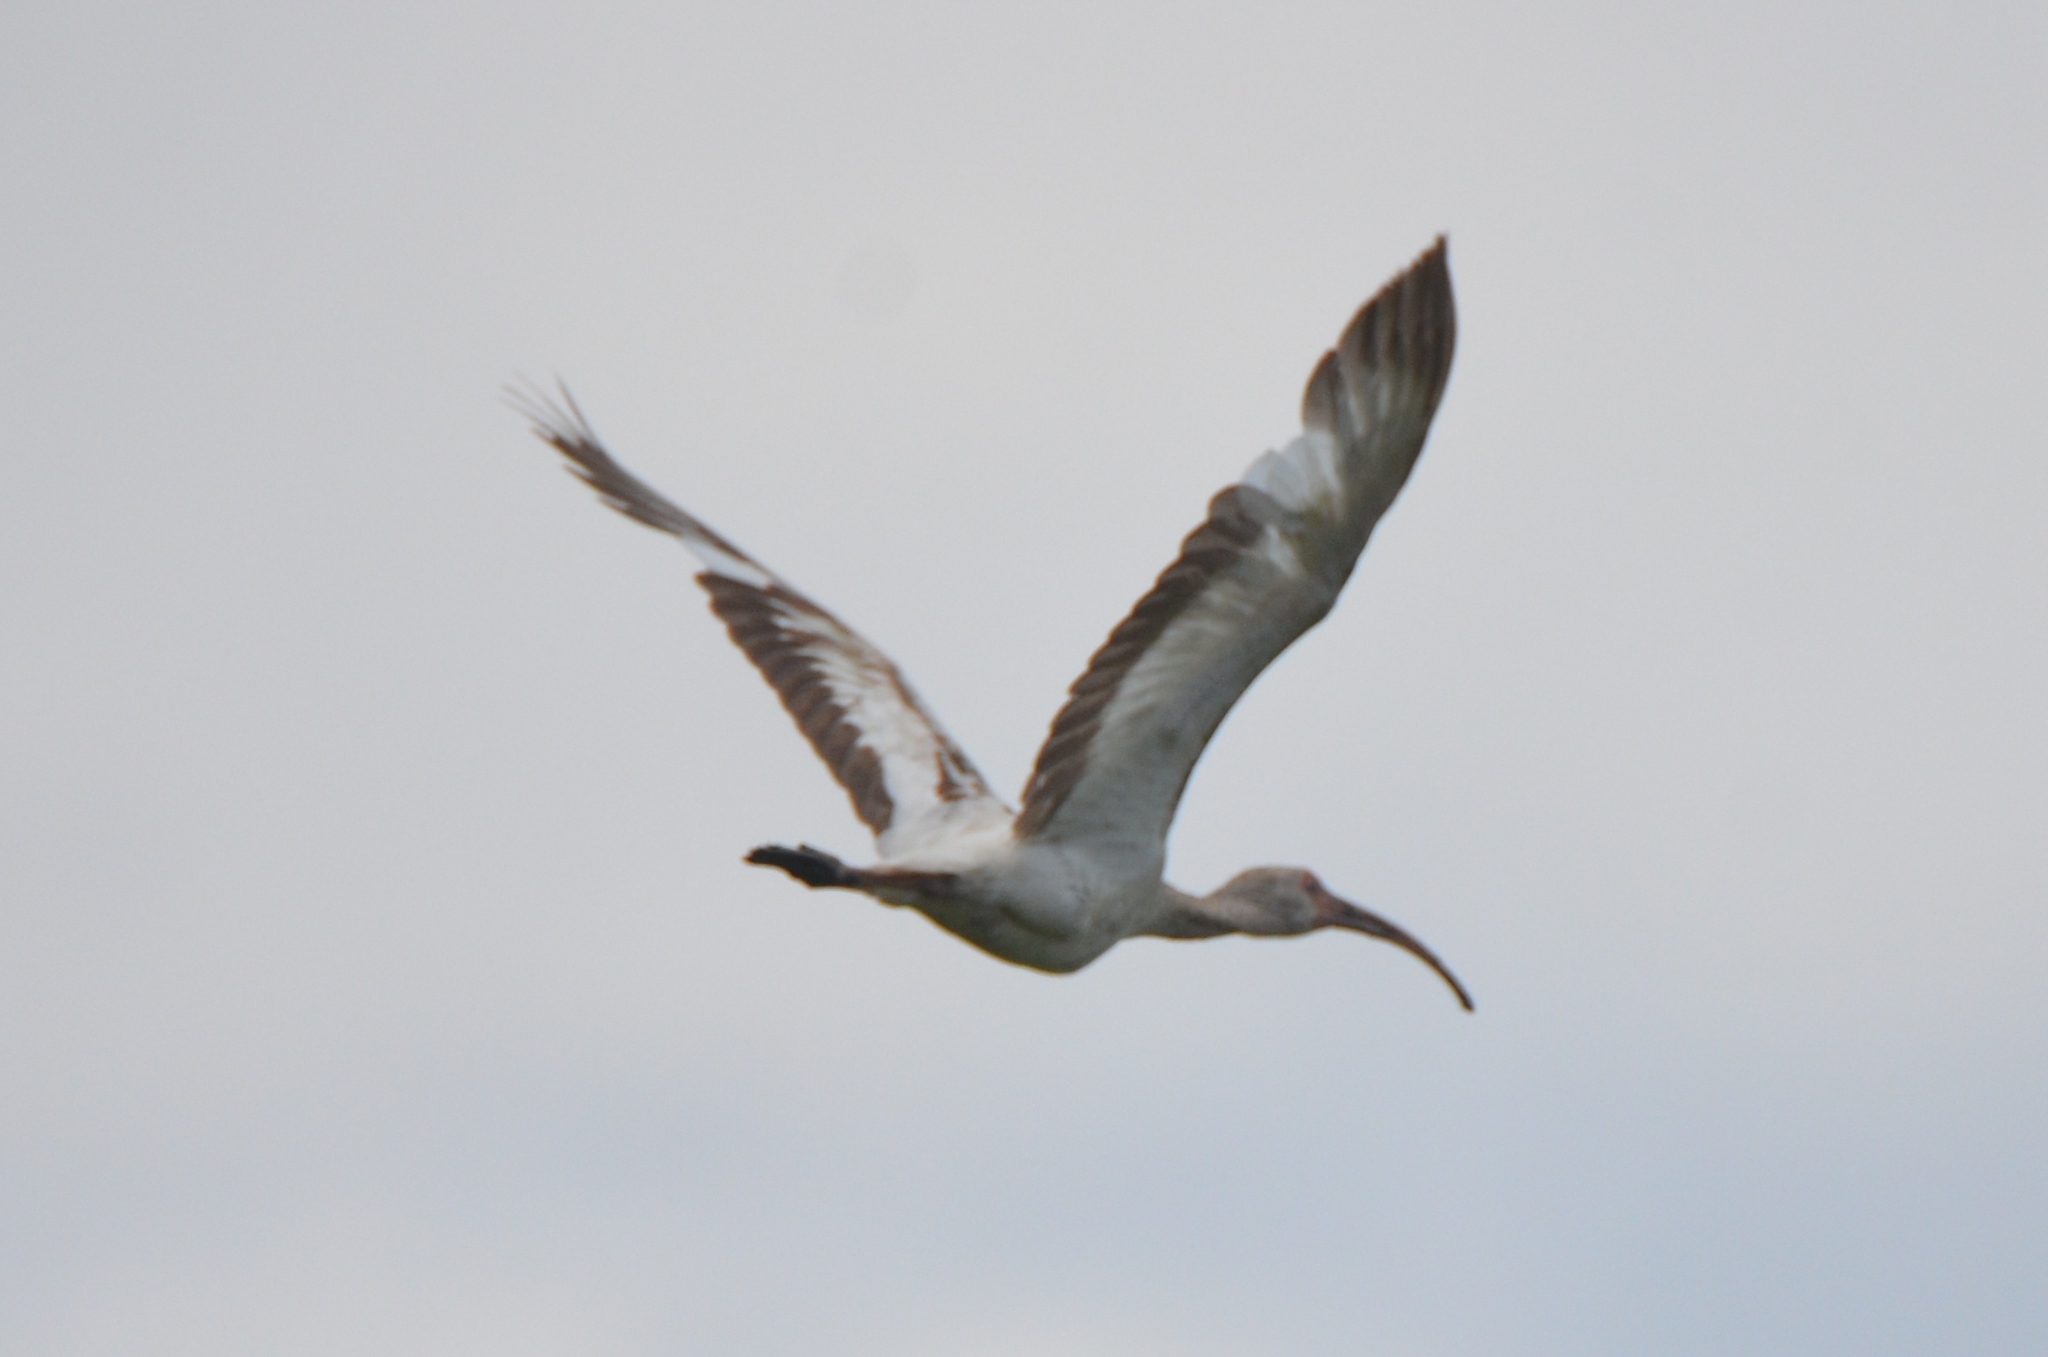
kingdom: Animalia
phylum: Chordata
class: Aves
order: Pelecaniformes
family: Threskiornithidae
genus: Eudocimus
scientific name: Eudocimus albus
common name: White ibis
